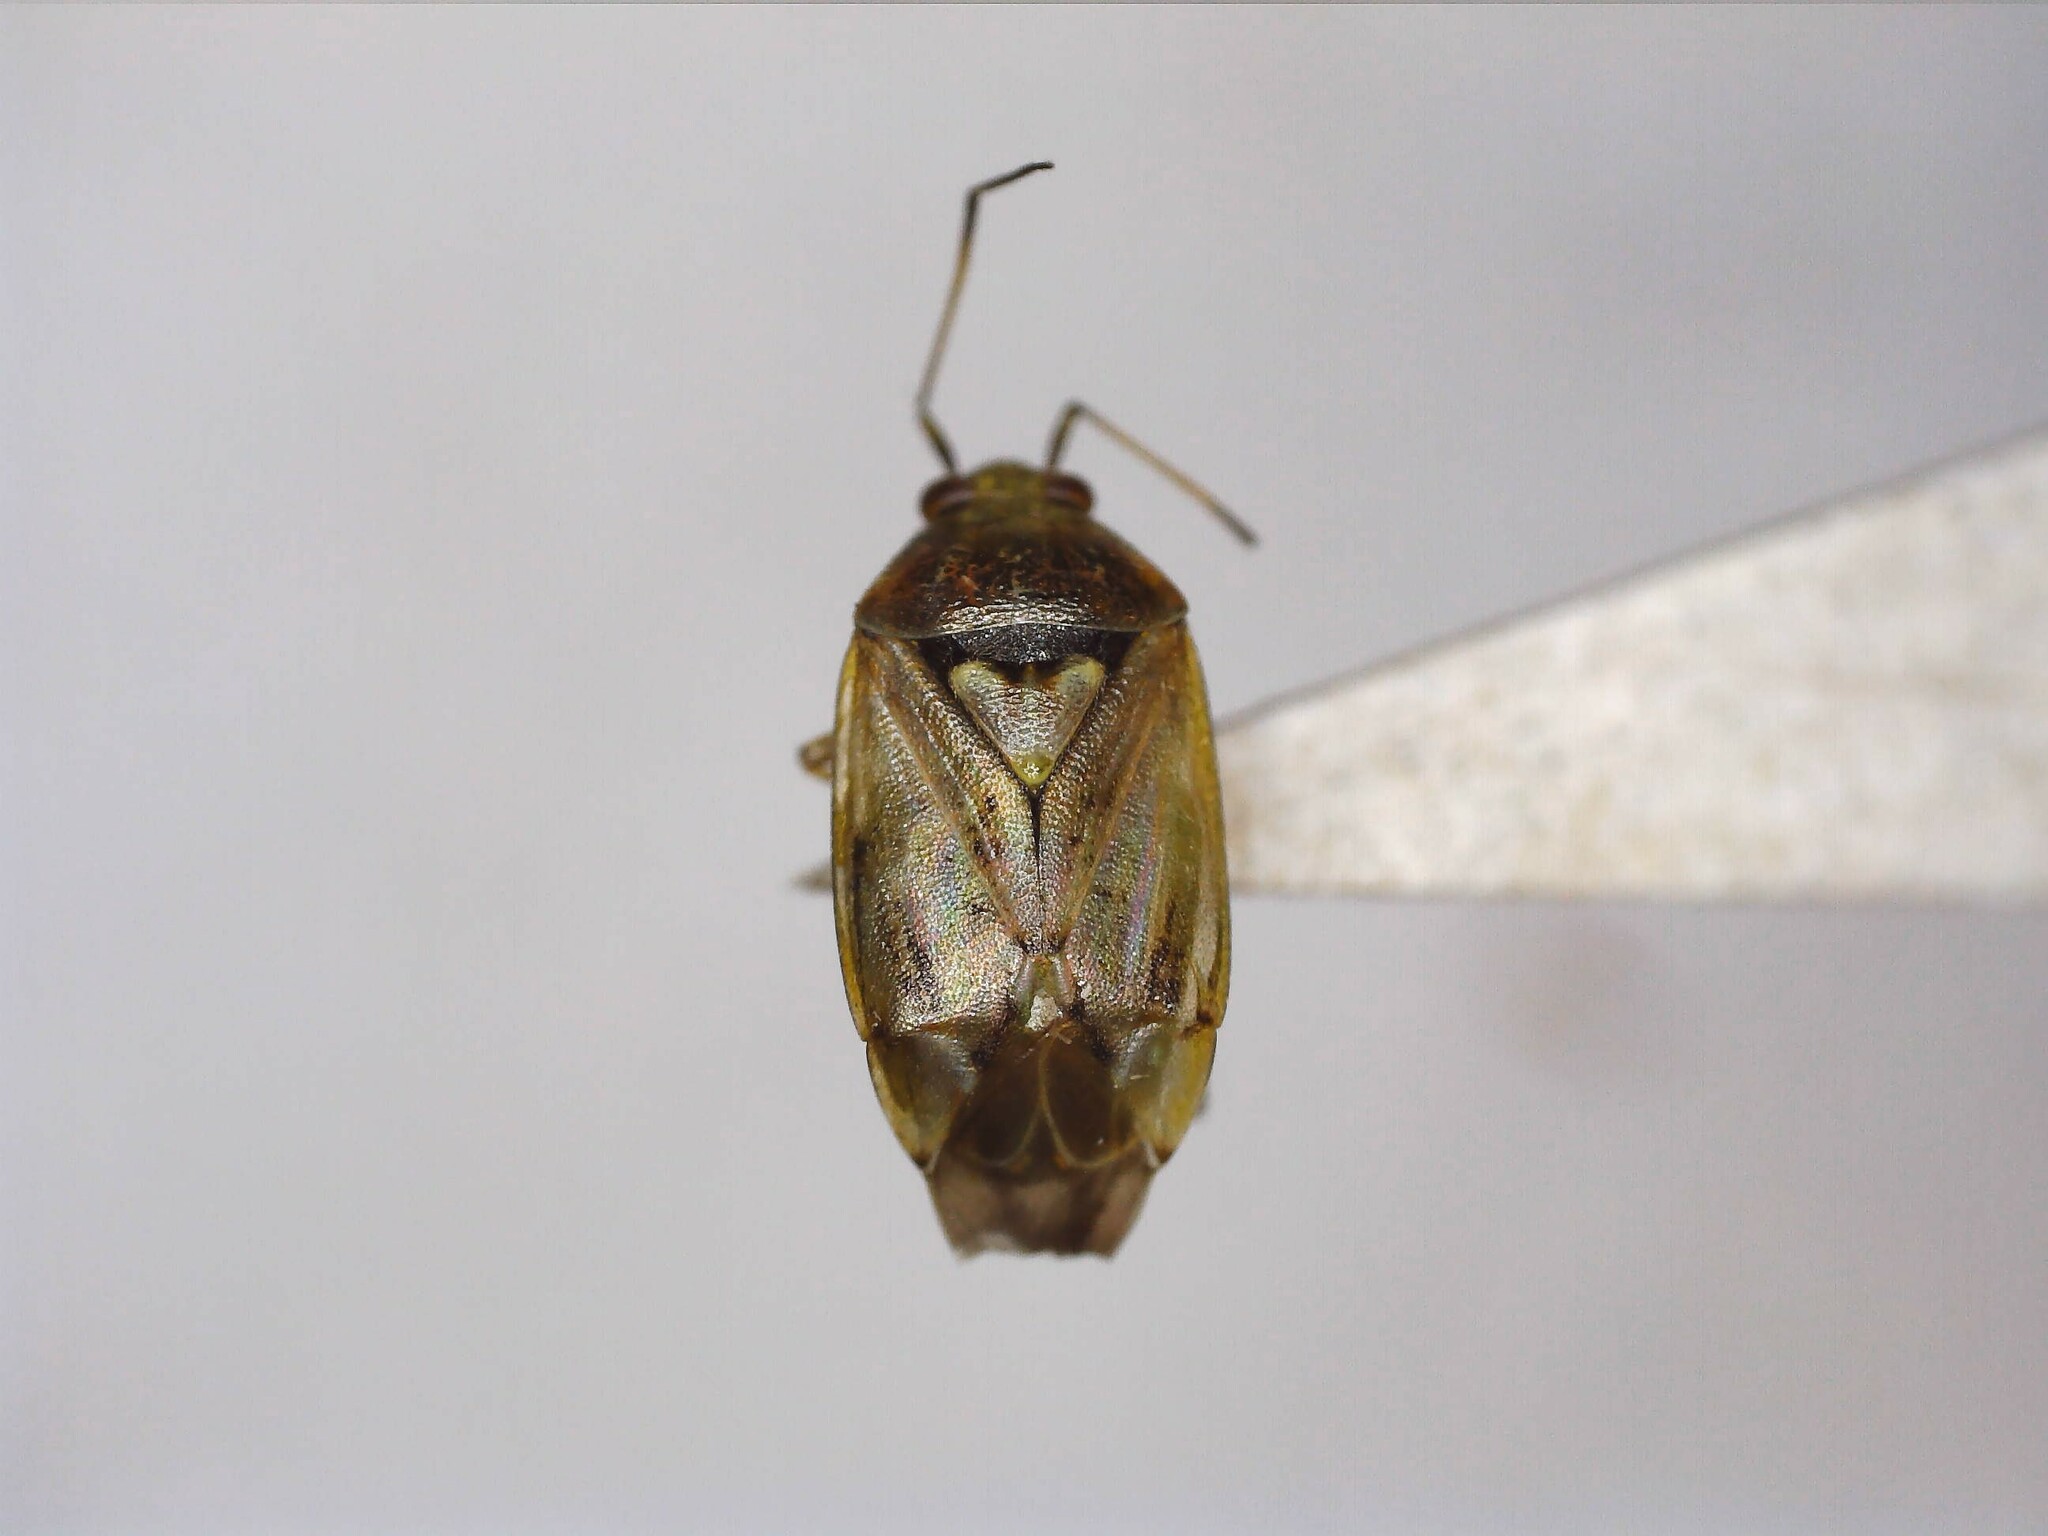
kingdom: Animalia
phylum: Arthropoda
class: Insecta
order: Hemiptera
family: Miridae
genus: Lygus
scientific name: Lygus rugulipennis
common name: European tarnished plant bug
